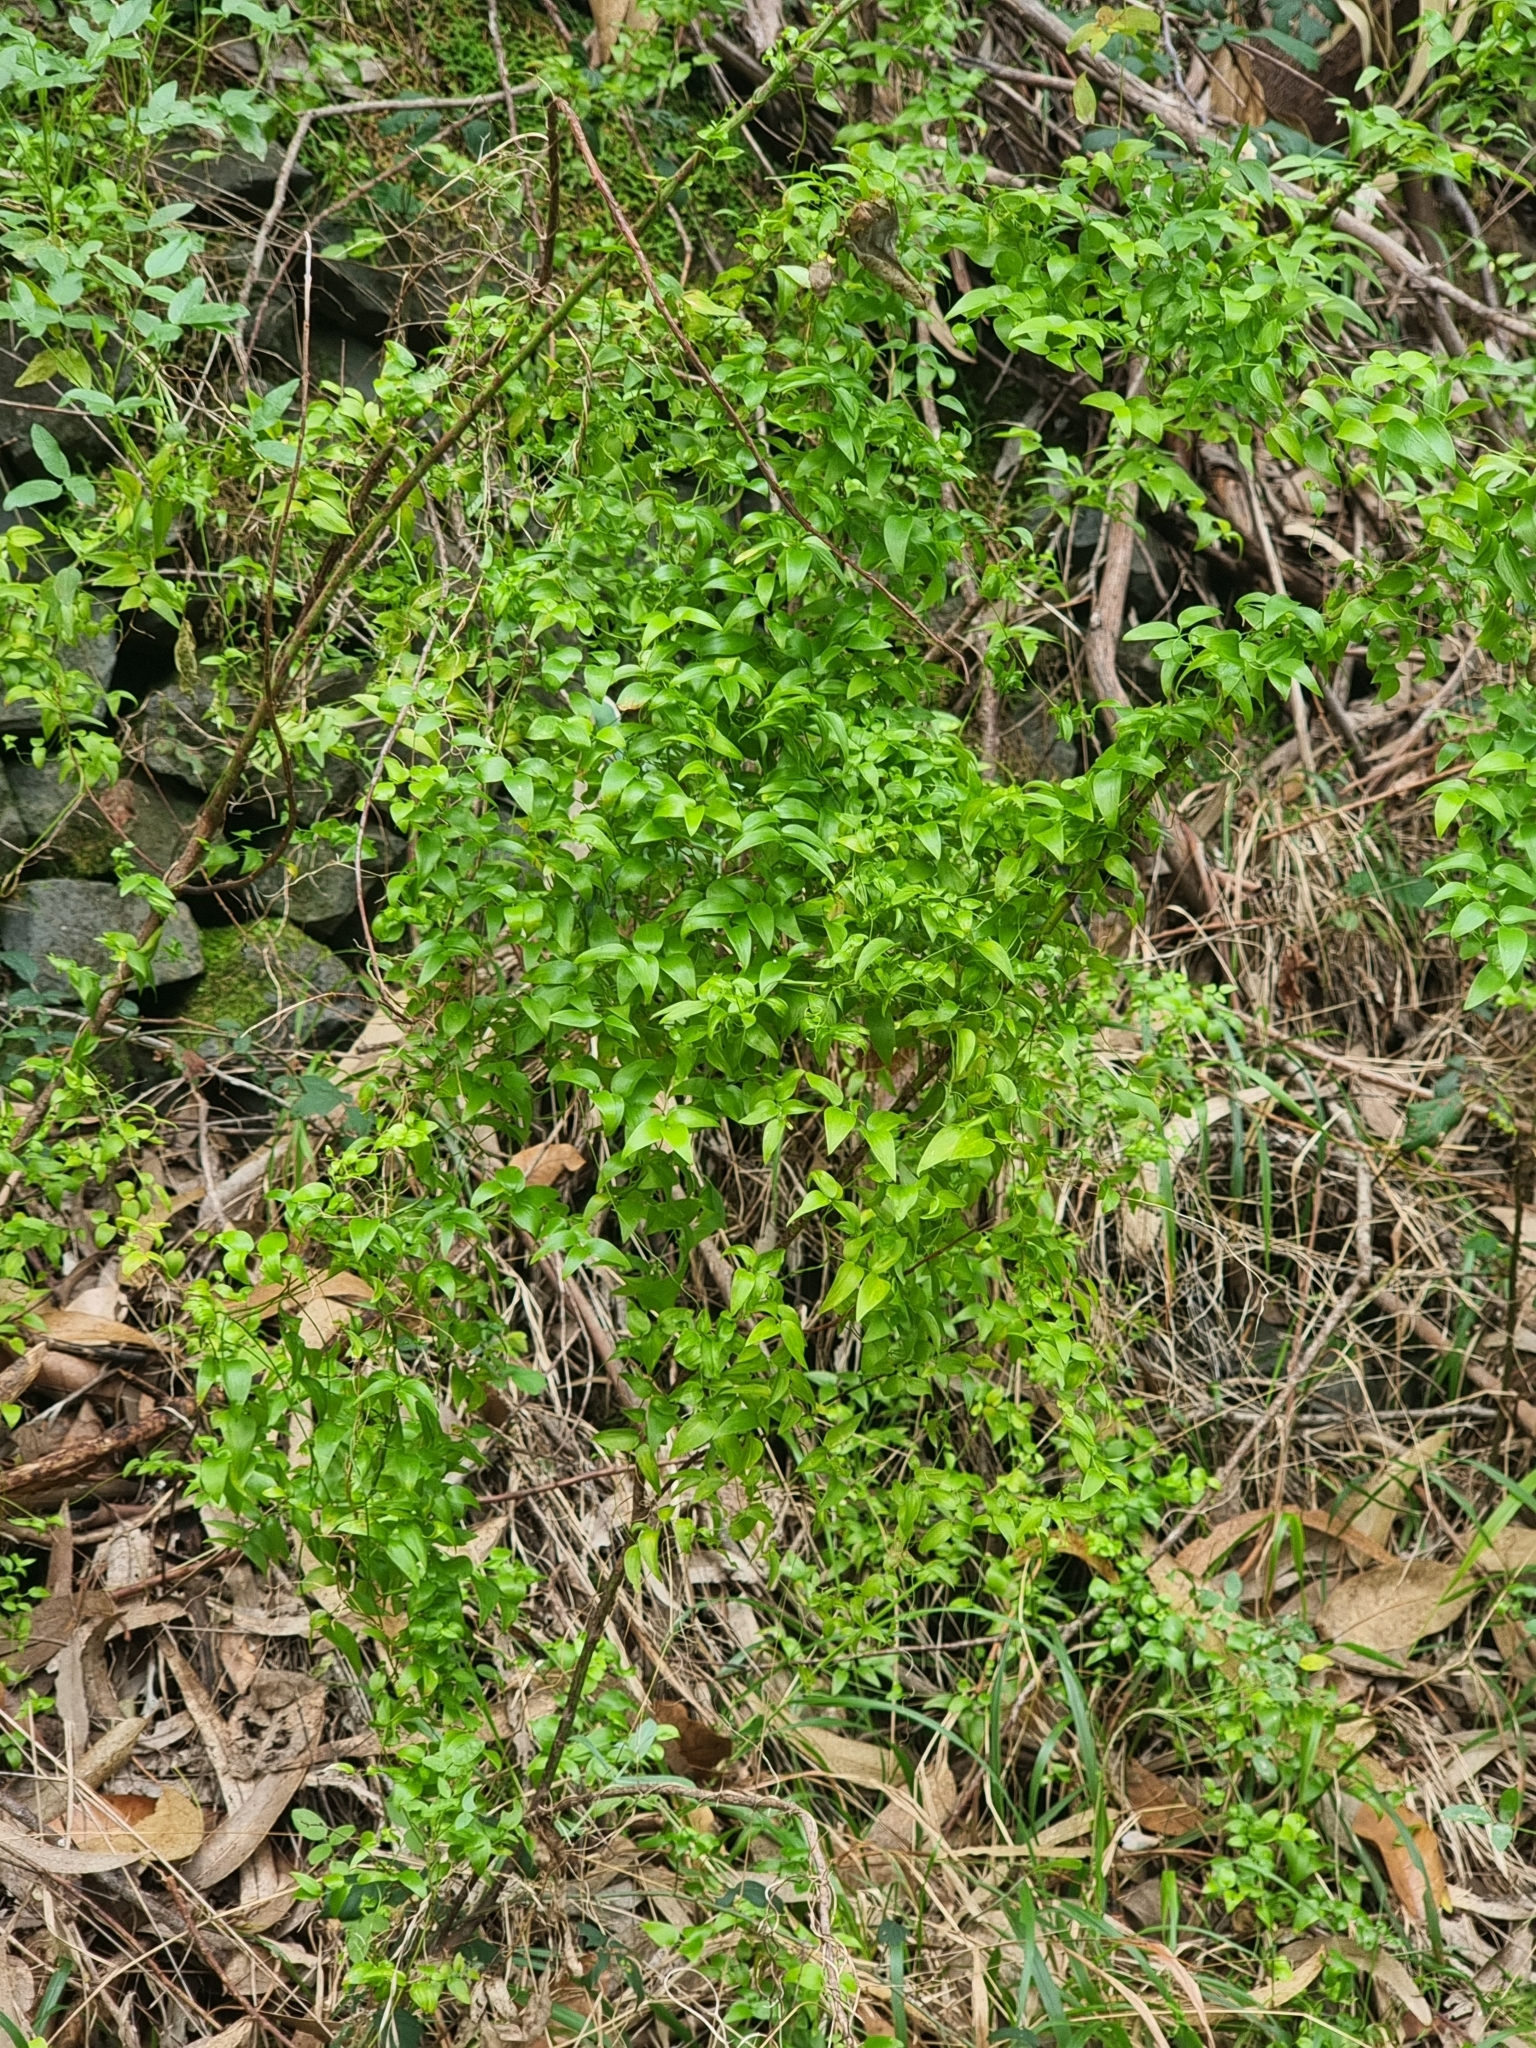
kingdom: Plantae
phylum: Tracheophyta
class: Liliopsida
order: Asparagales
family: Asparagaceae
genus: Asparagus
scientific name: Asparagus asparagoides
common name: African asparagus fern
